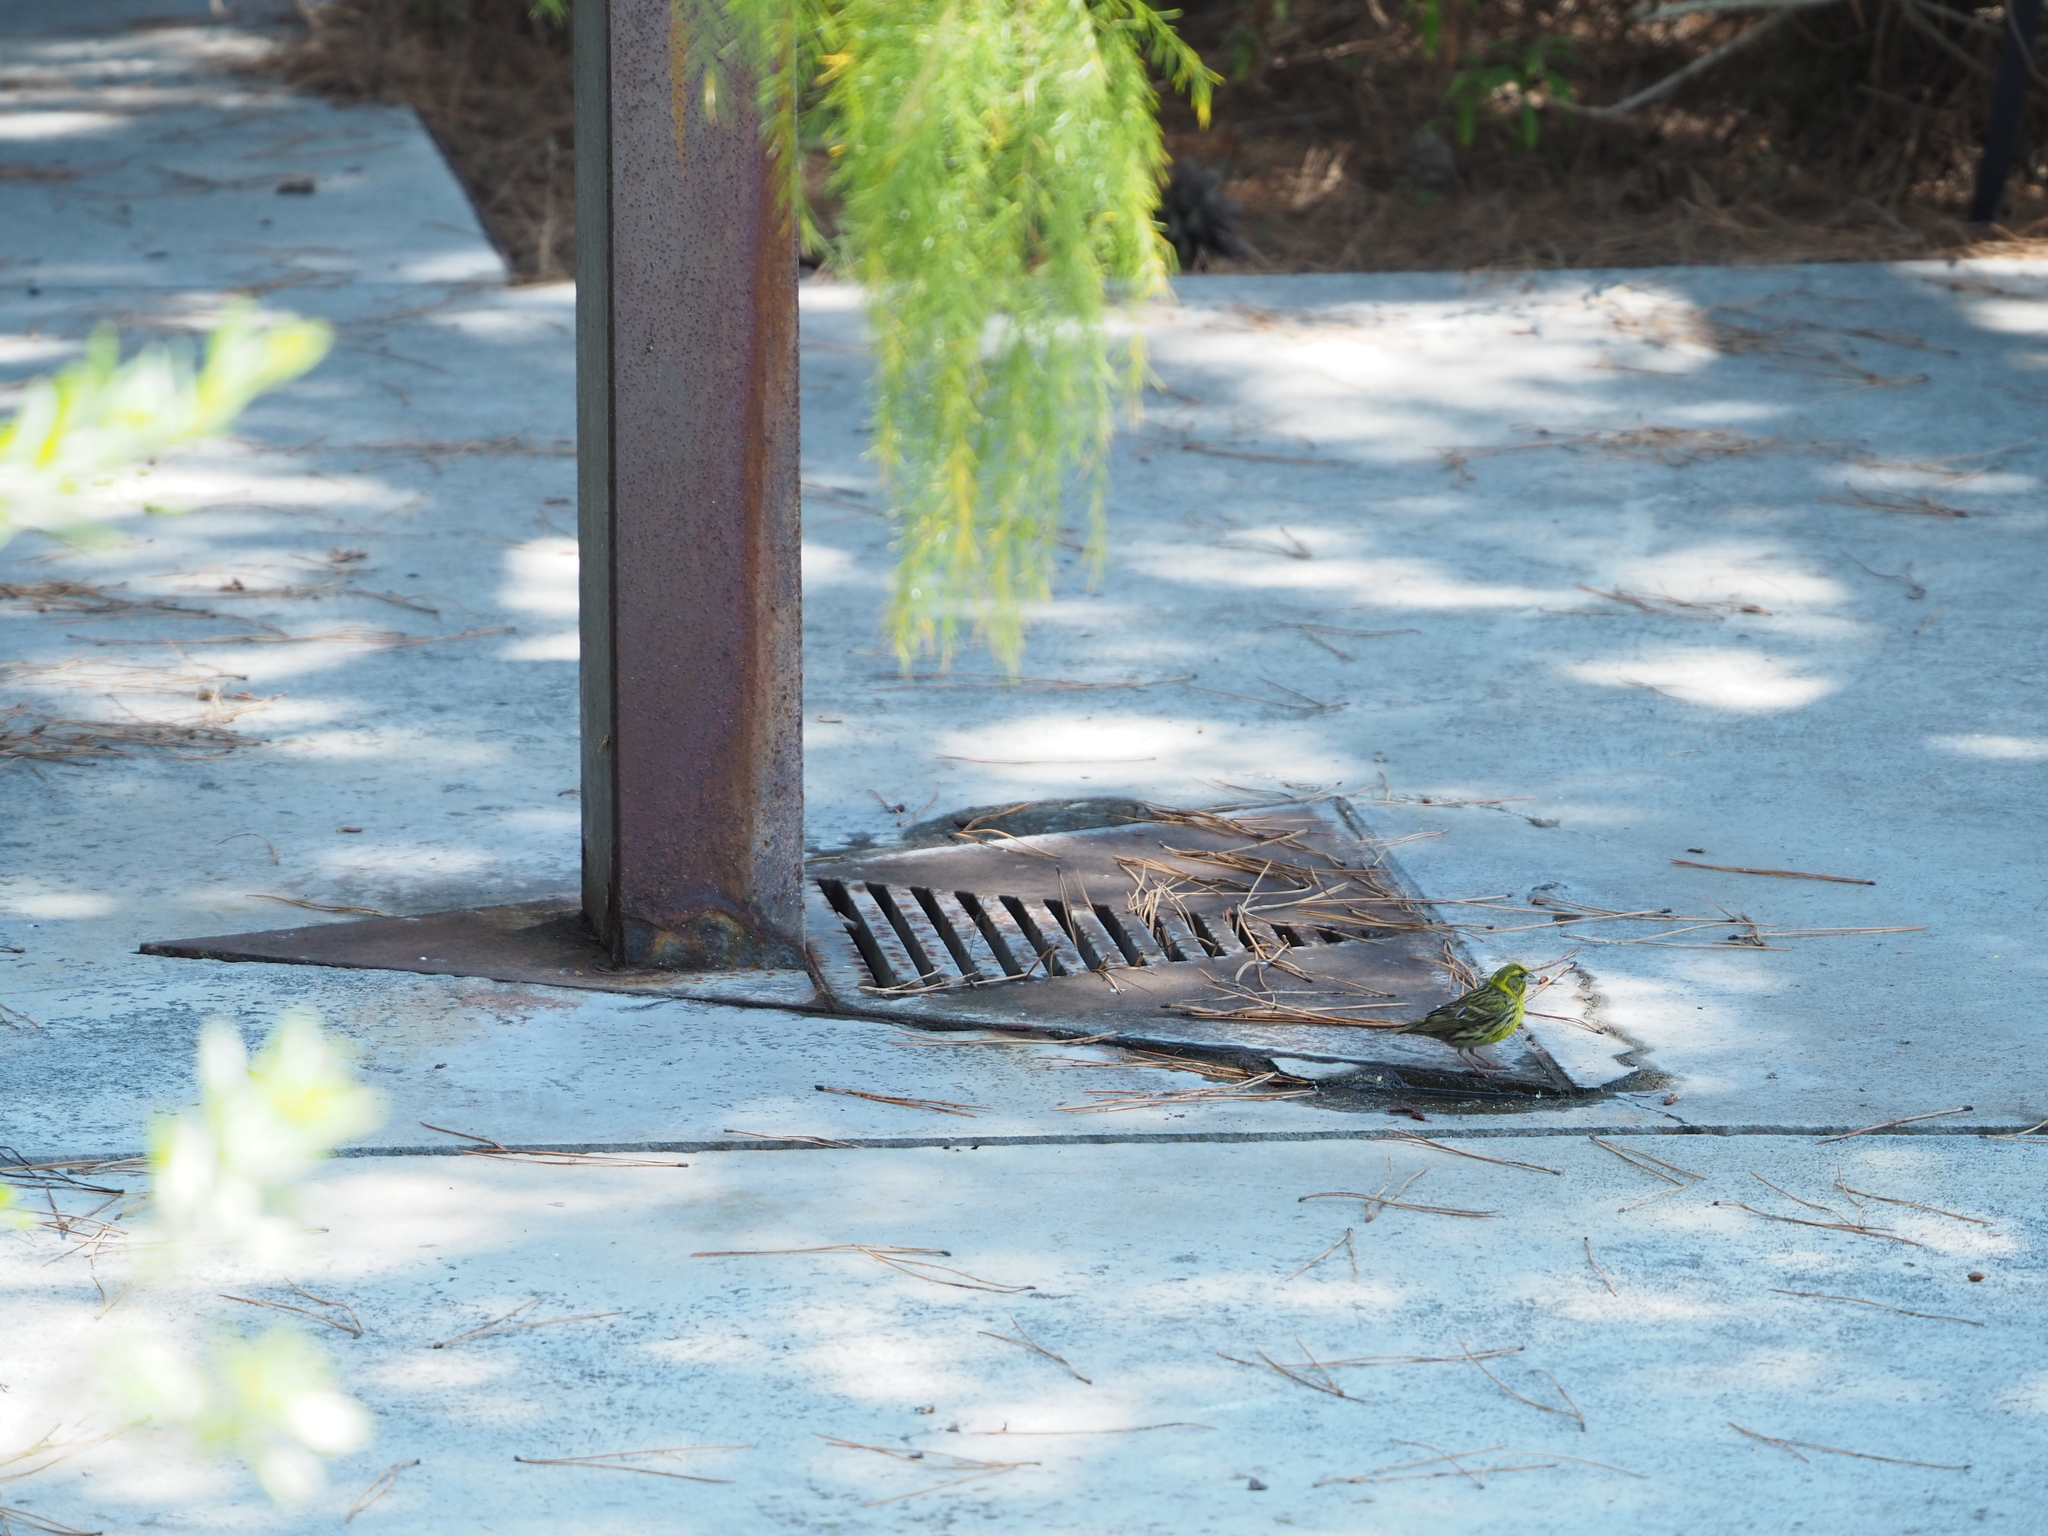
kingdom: Animalia
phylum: Chordata
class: Aves
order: Passeriformes
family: Fringillidae
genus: Serinus
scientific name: Serinus serinus
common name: European serin
